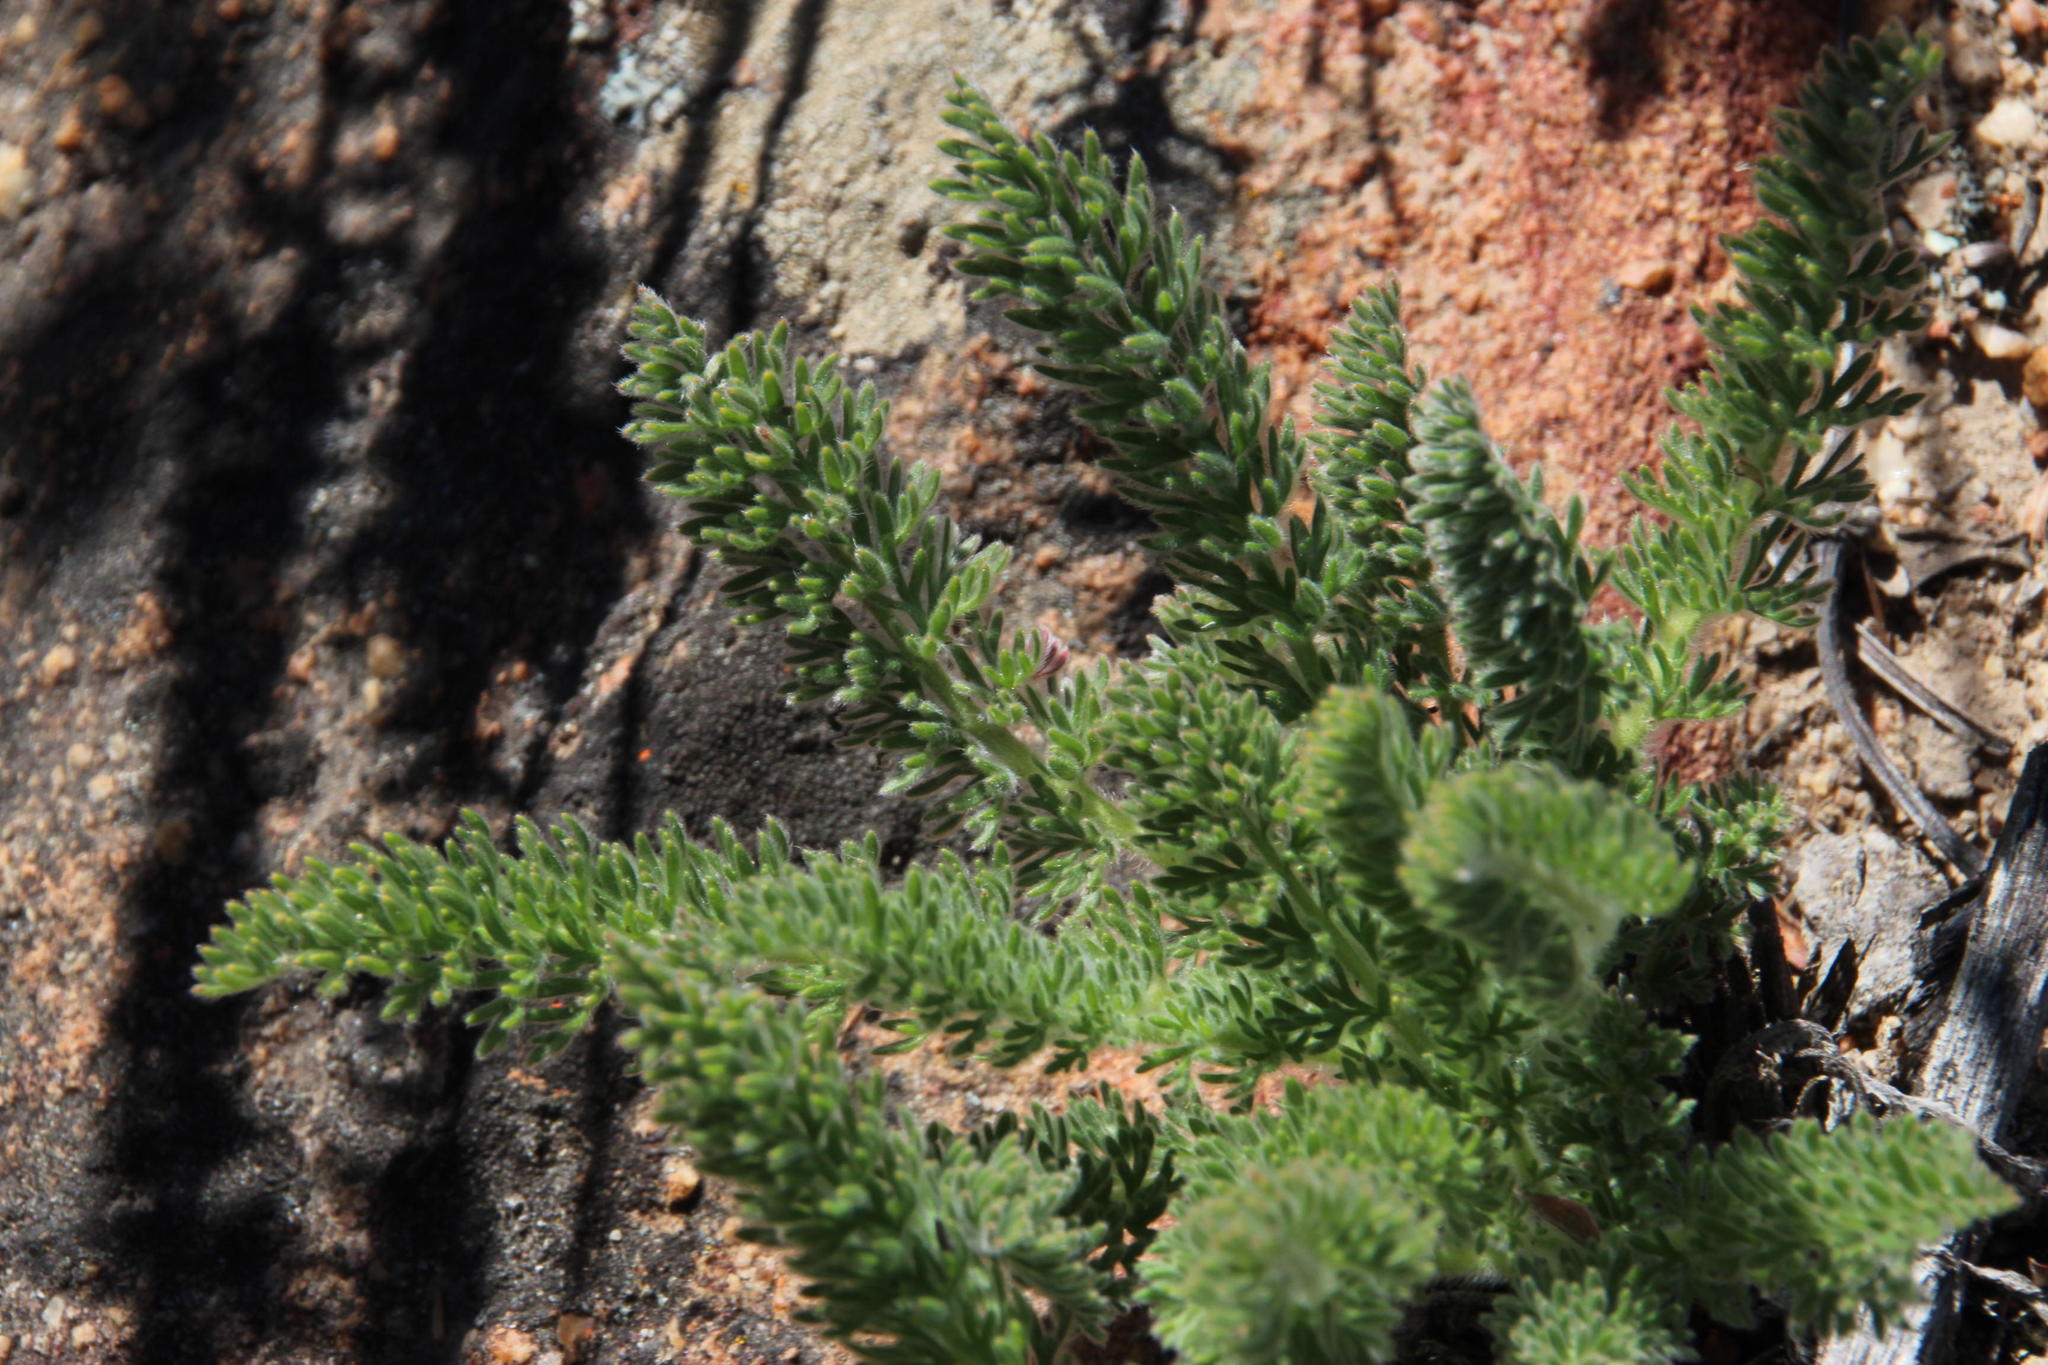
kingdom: Plantae
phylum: Tracheophyta
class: Magnoliopsida
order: Geraniales
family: Geraniaceae
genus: Pelargonium
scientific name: Pelargonium rapaceum
